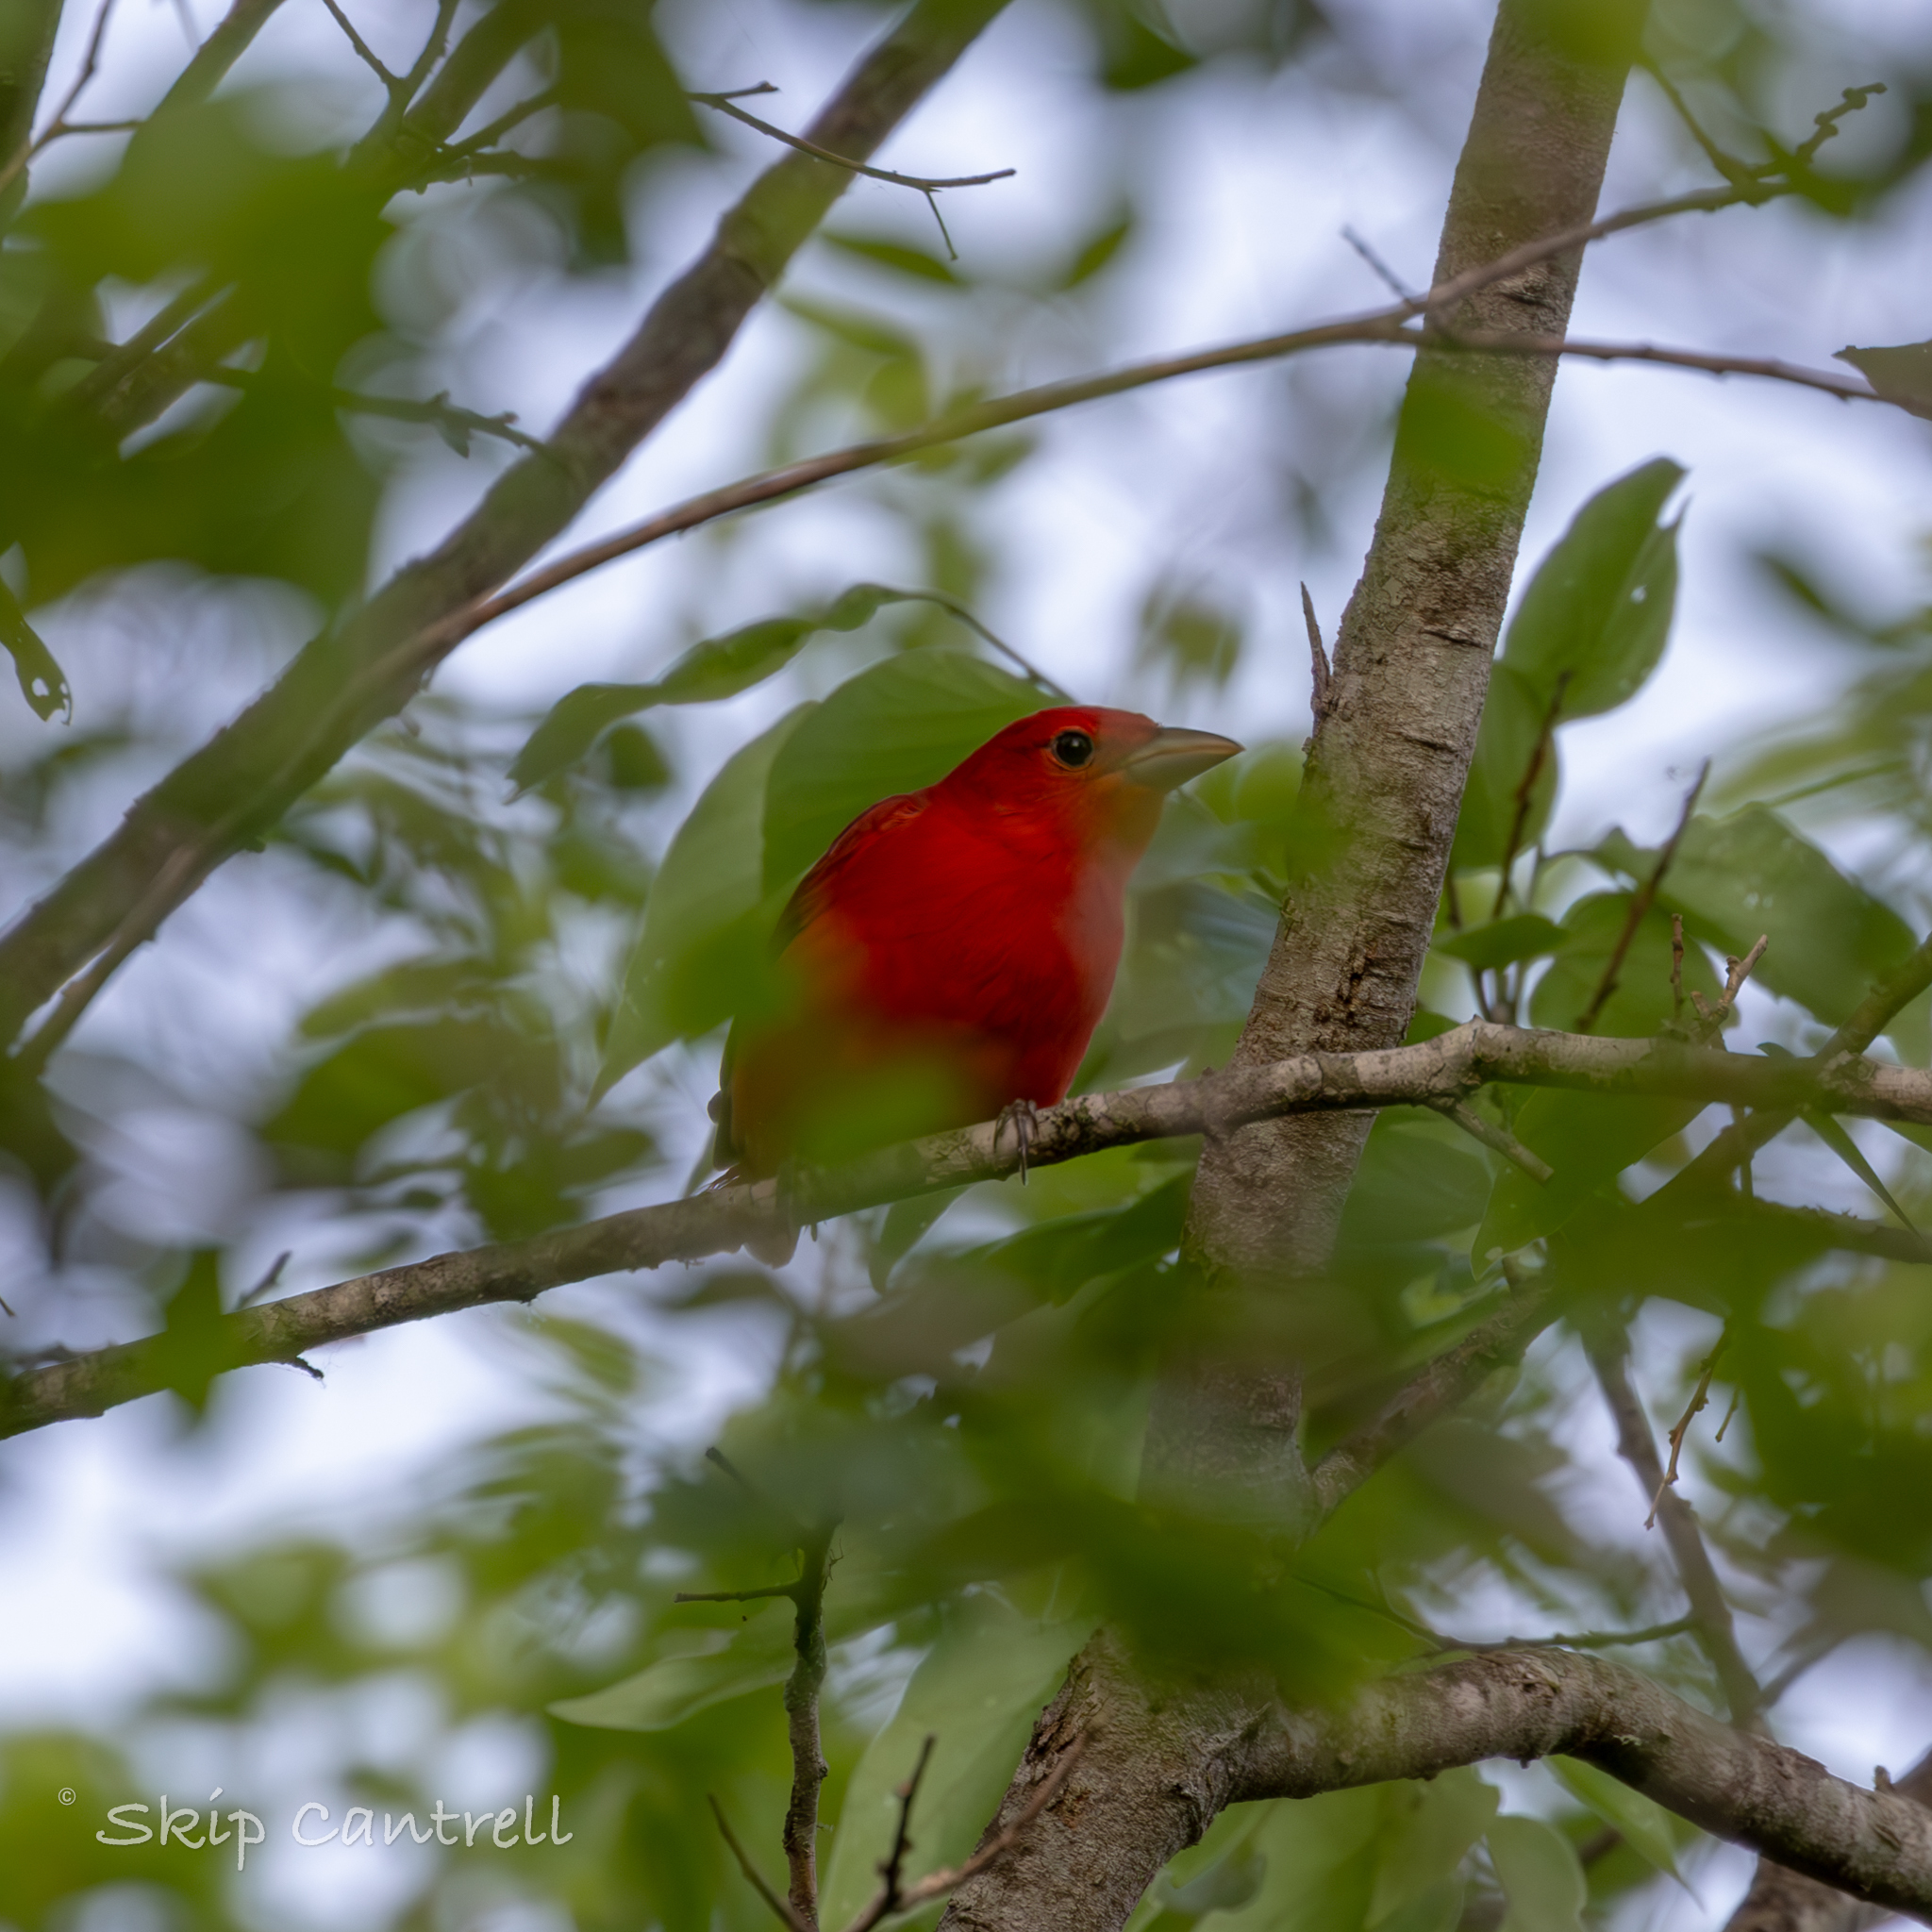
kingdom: Animalia
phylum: Chordata
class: Aves
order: Passeriformes
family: Cardinalidae
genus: Piranga
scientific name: Piranga rubra
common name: Summer tanager
